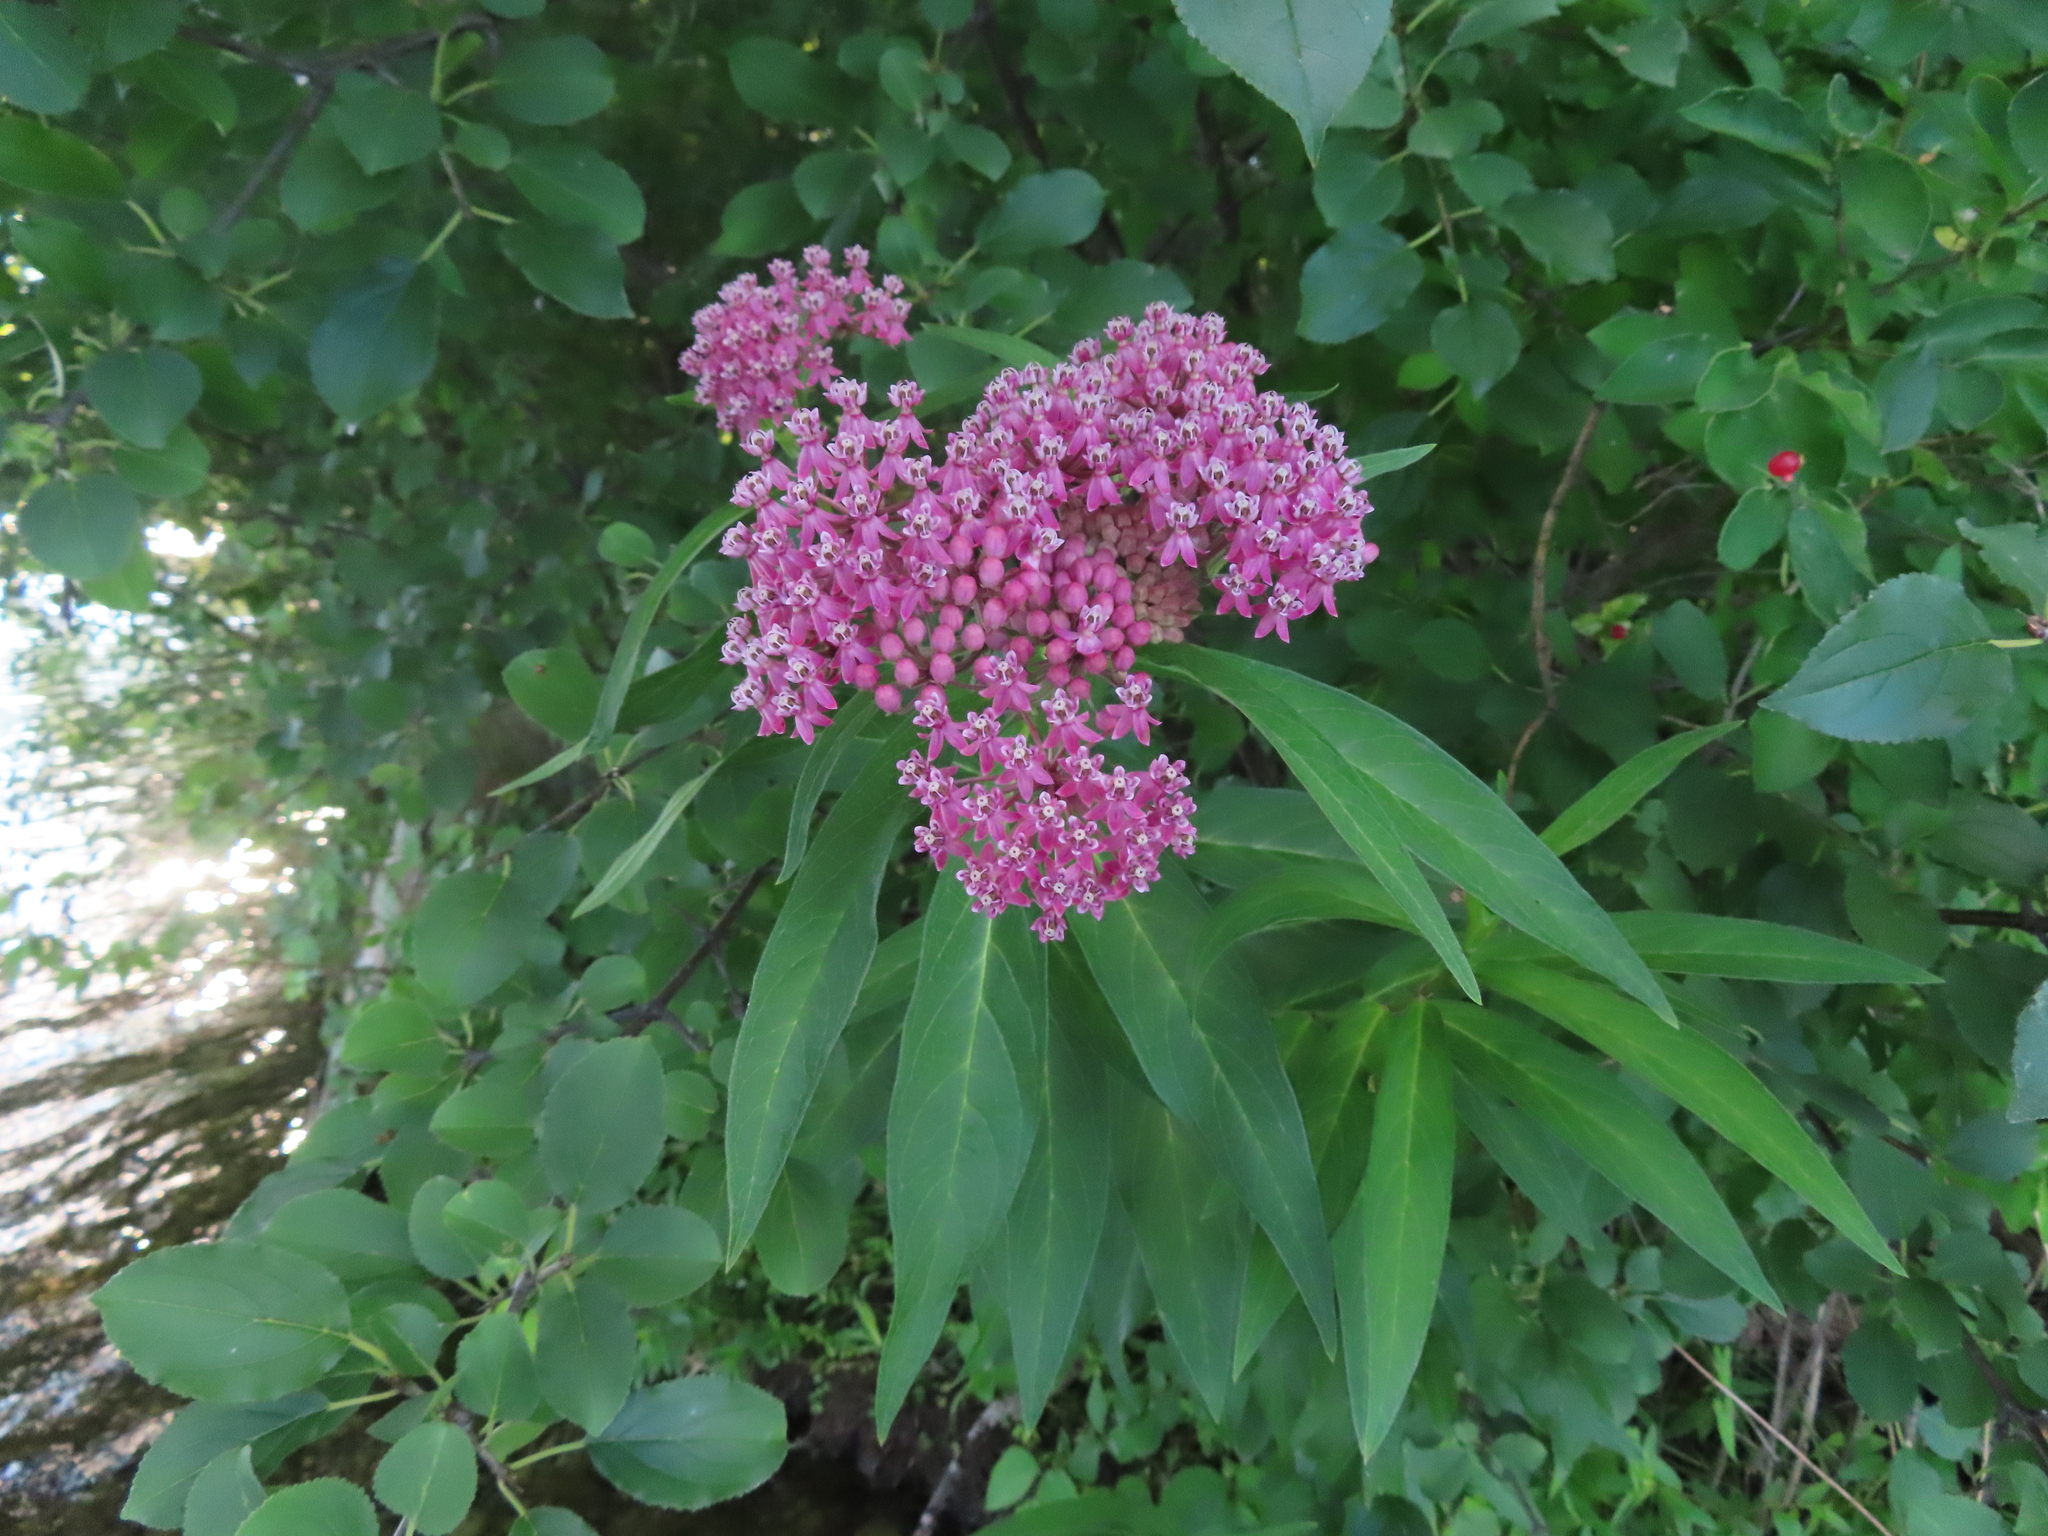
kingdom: Plantae
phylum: Tracheophyta
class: Magnoliopsida
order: Gentianales
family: Apocynaceae
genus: Asclepias
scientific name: Asclepias incarnata
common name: Swamp milkweed
